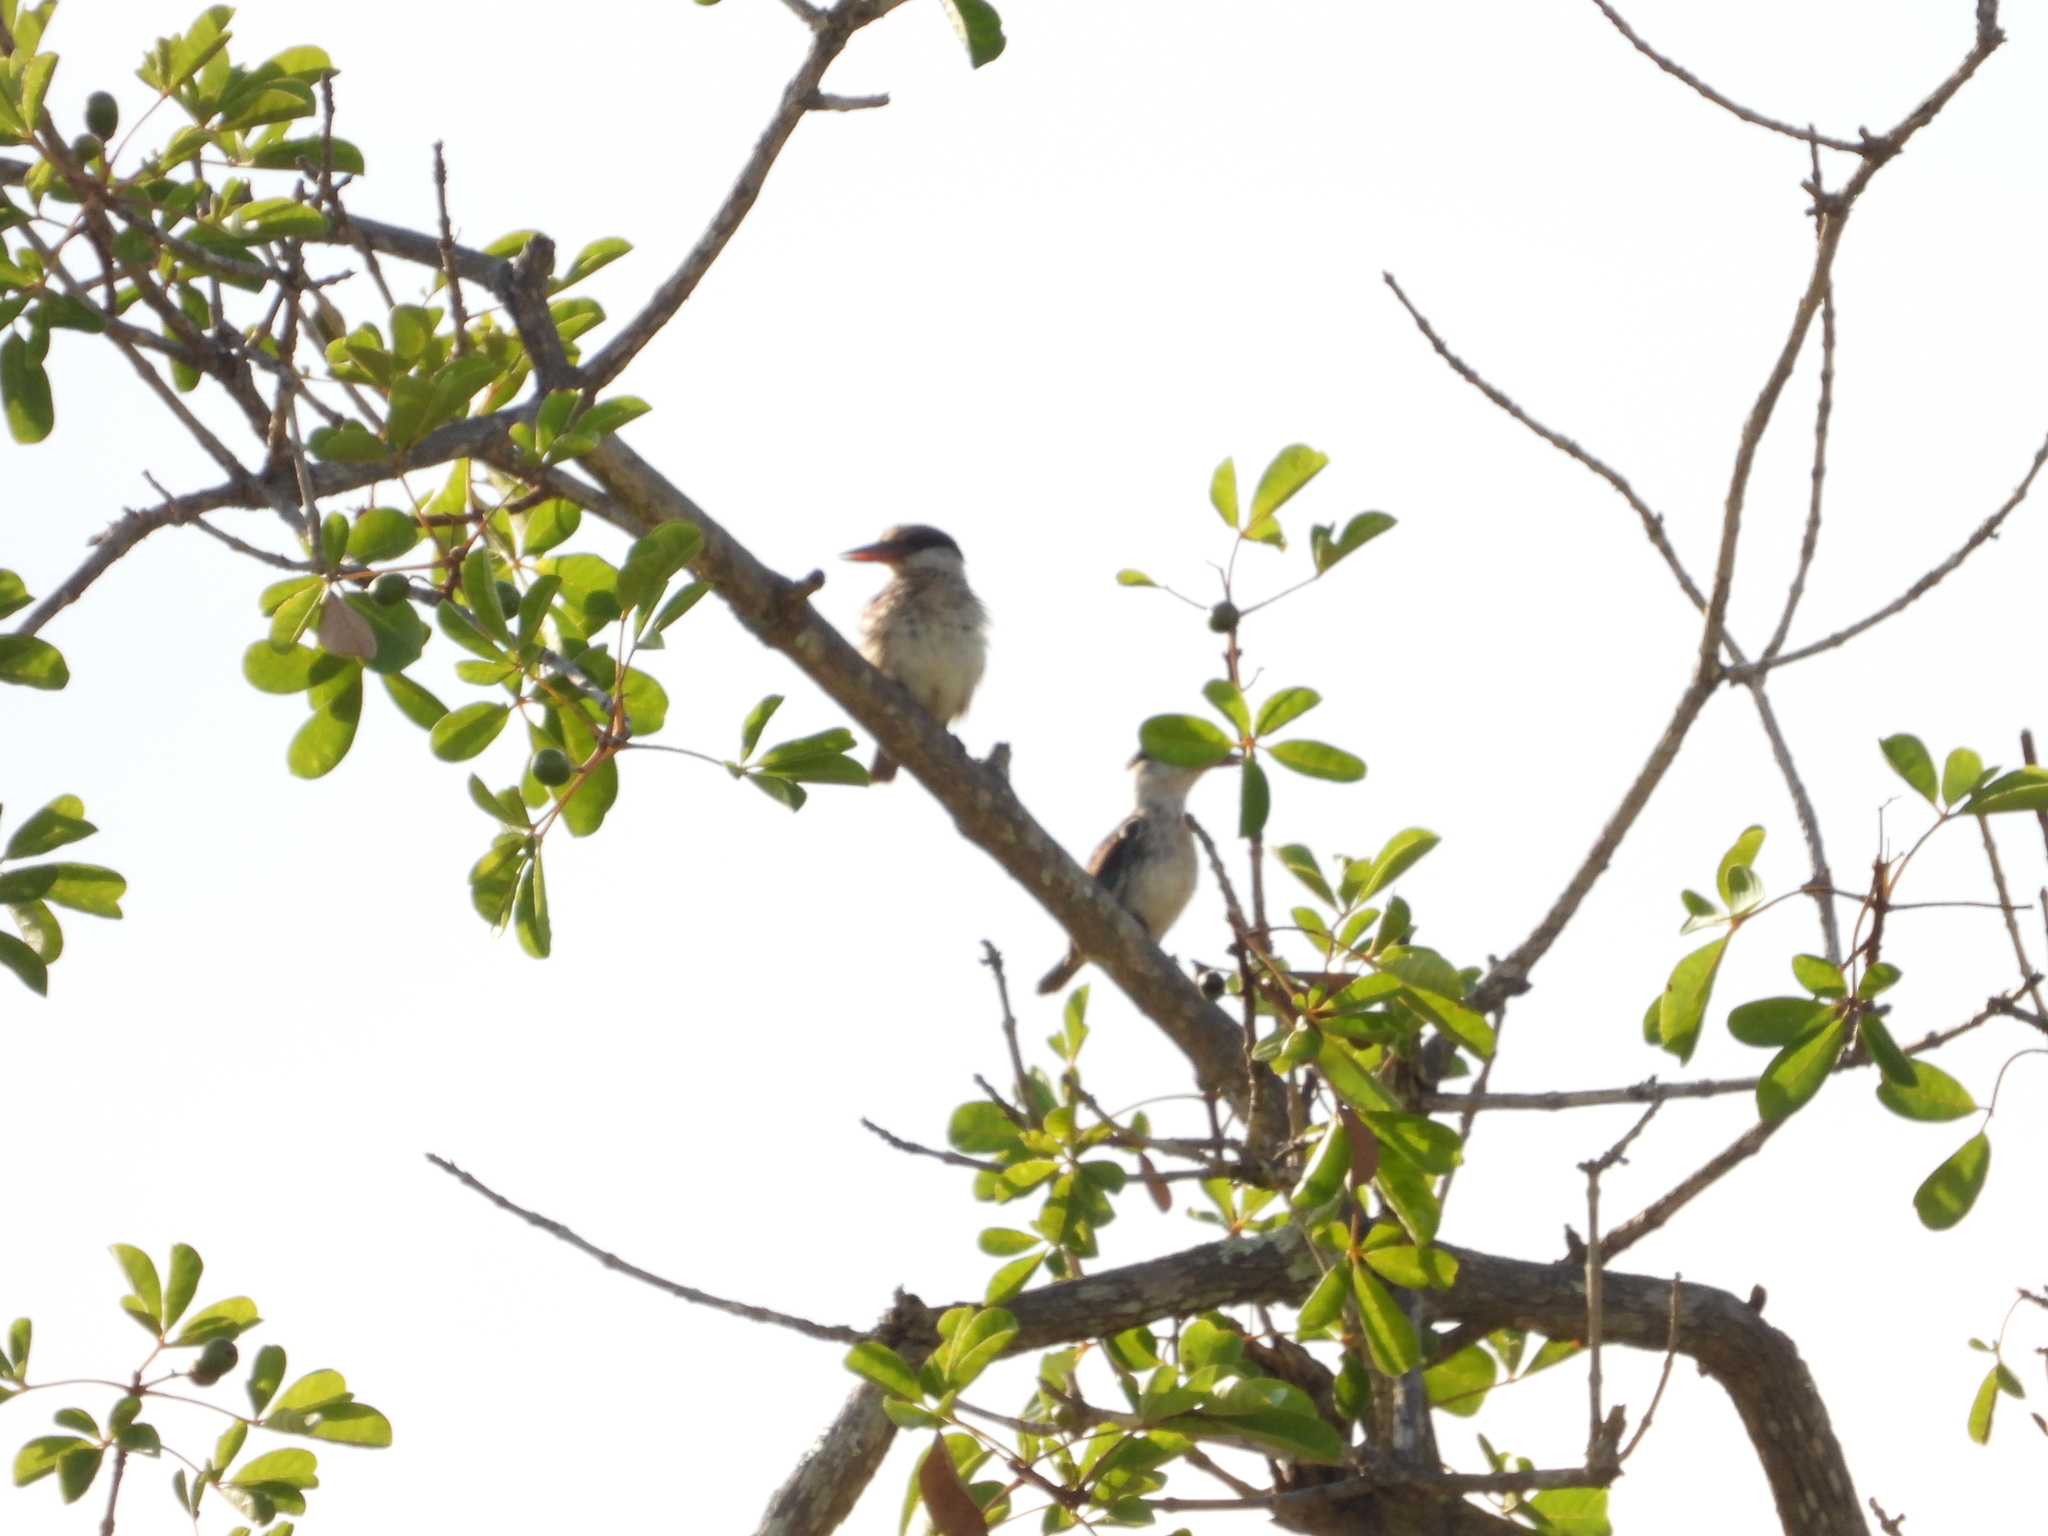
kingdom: Animalia
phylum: Chordata
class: Aves
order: Coraciiformes
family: Alcedinidae
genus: Halcyon
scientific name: Halcyon chelicuti
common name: Striped kingfisher
